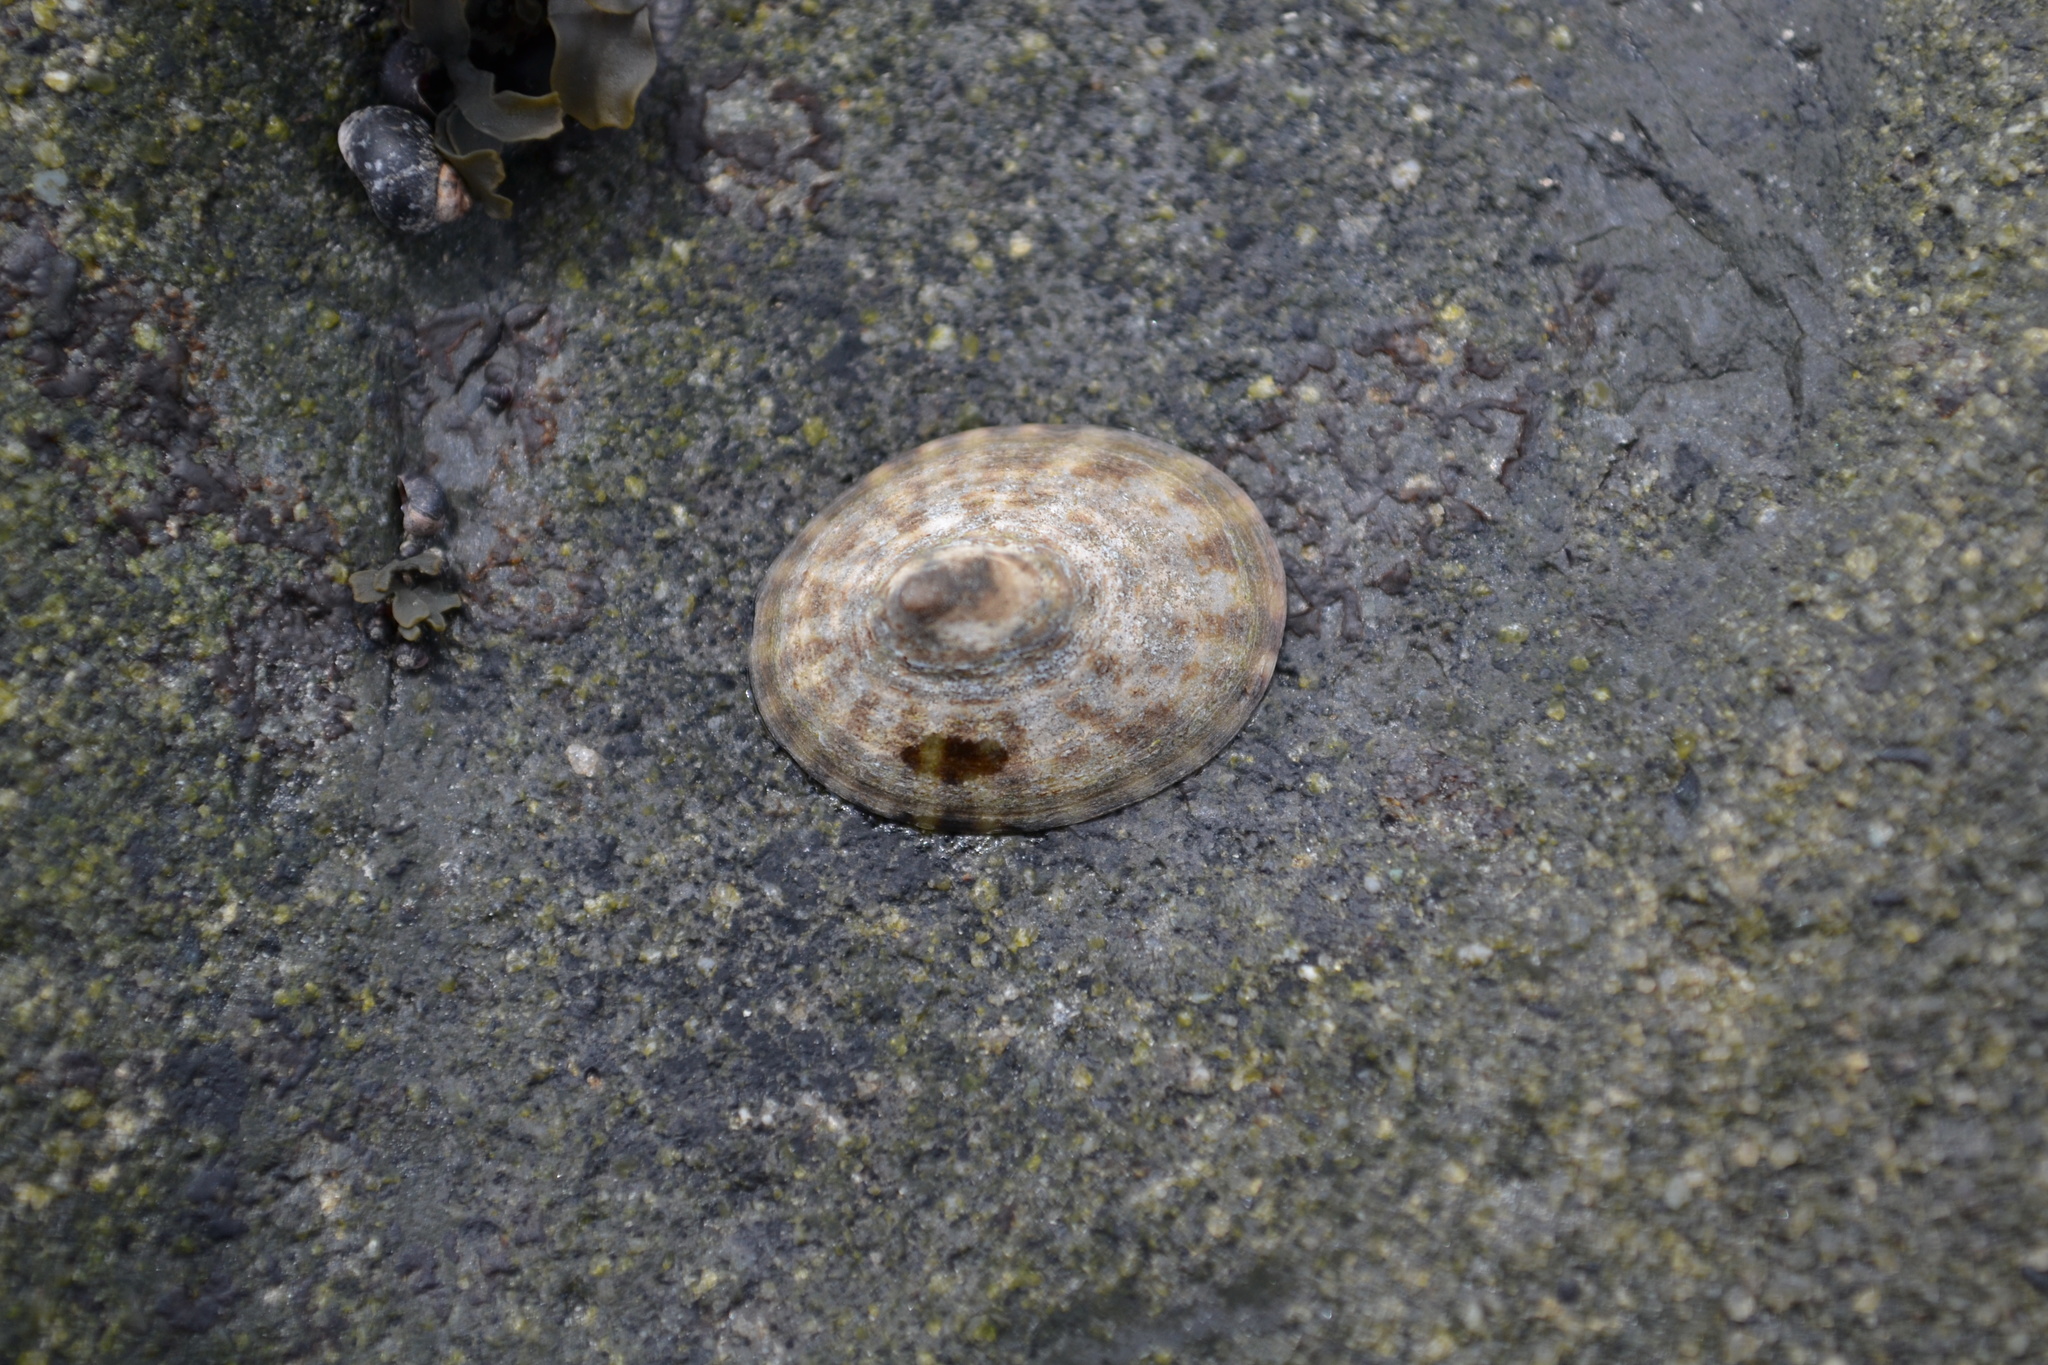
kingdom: Animalia
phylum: Mollusca
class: Gastropoda
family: Lottiidae
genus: Testudinalia
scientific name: Testudinalia testudinalis
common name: Common tortoiseshell limpet
